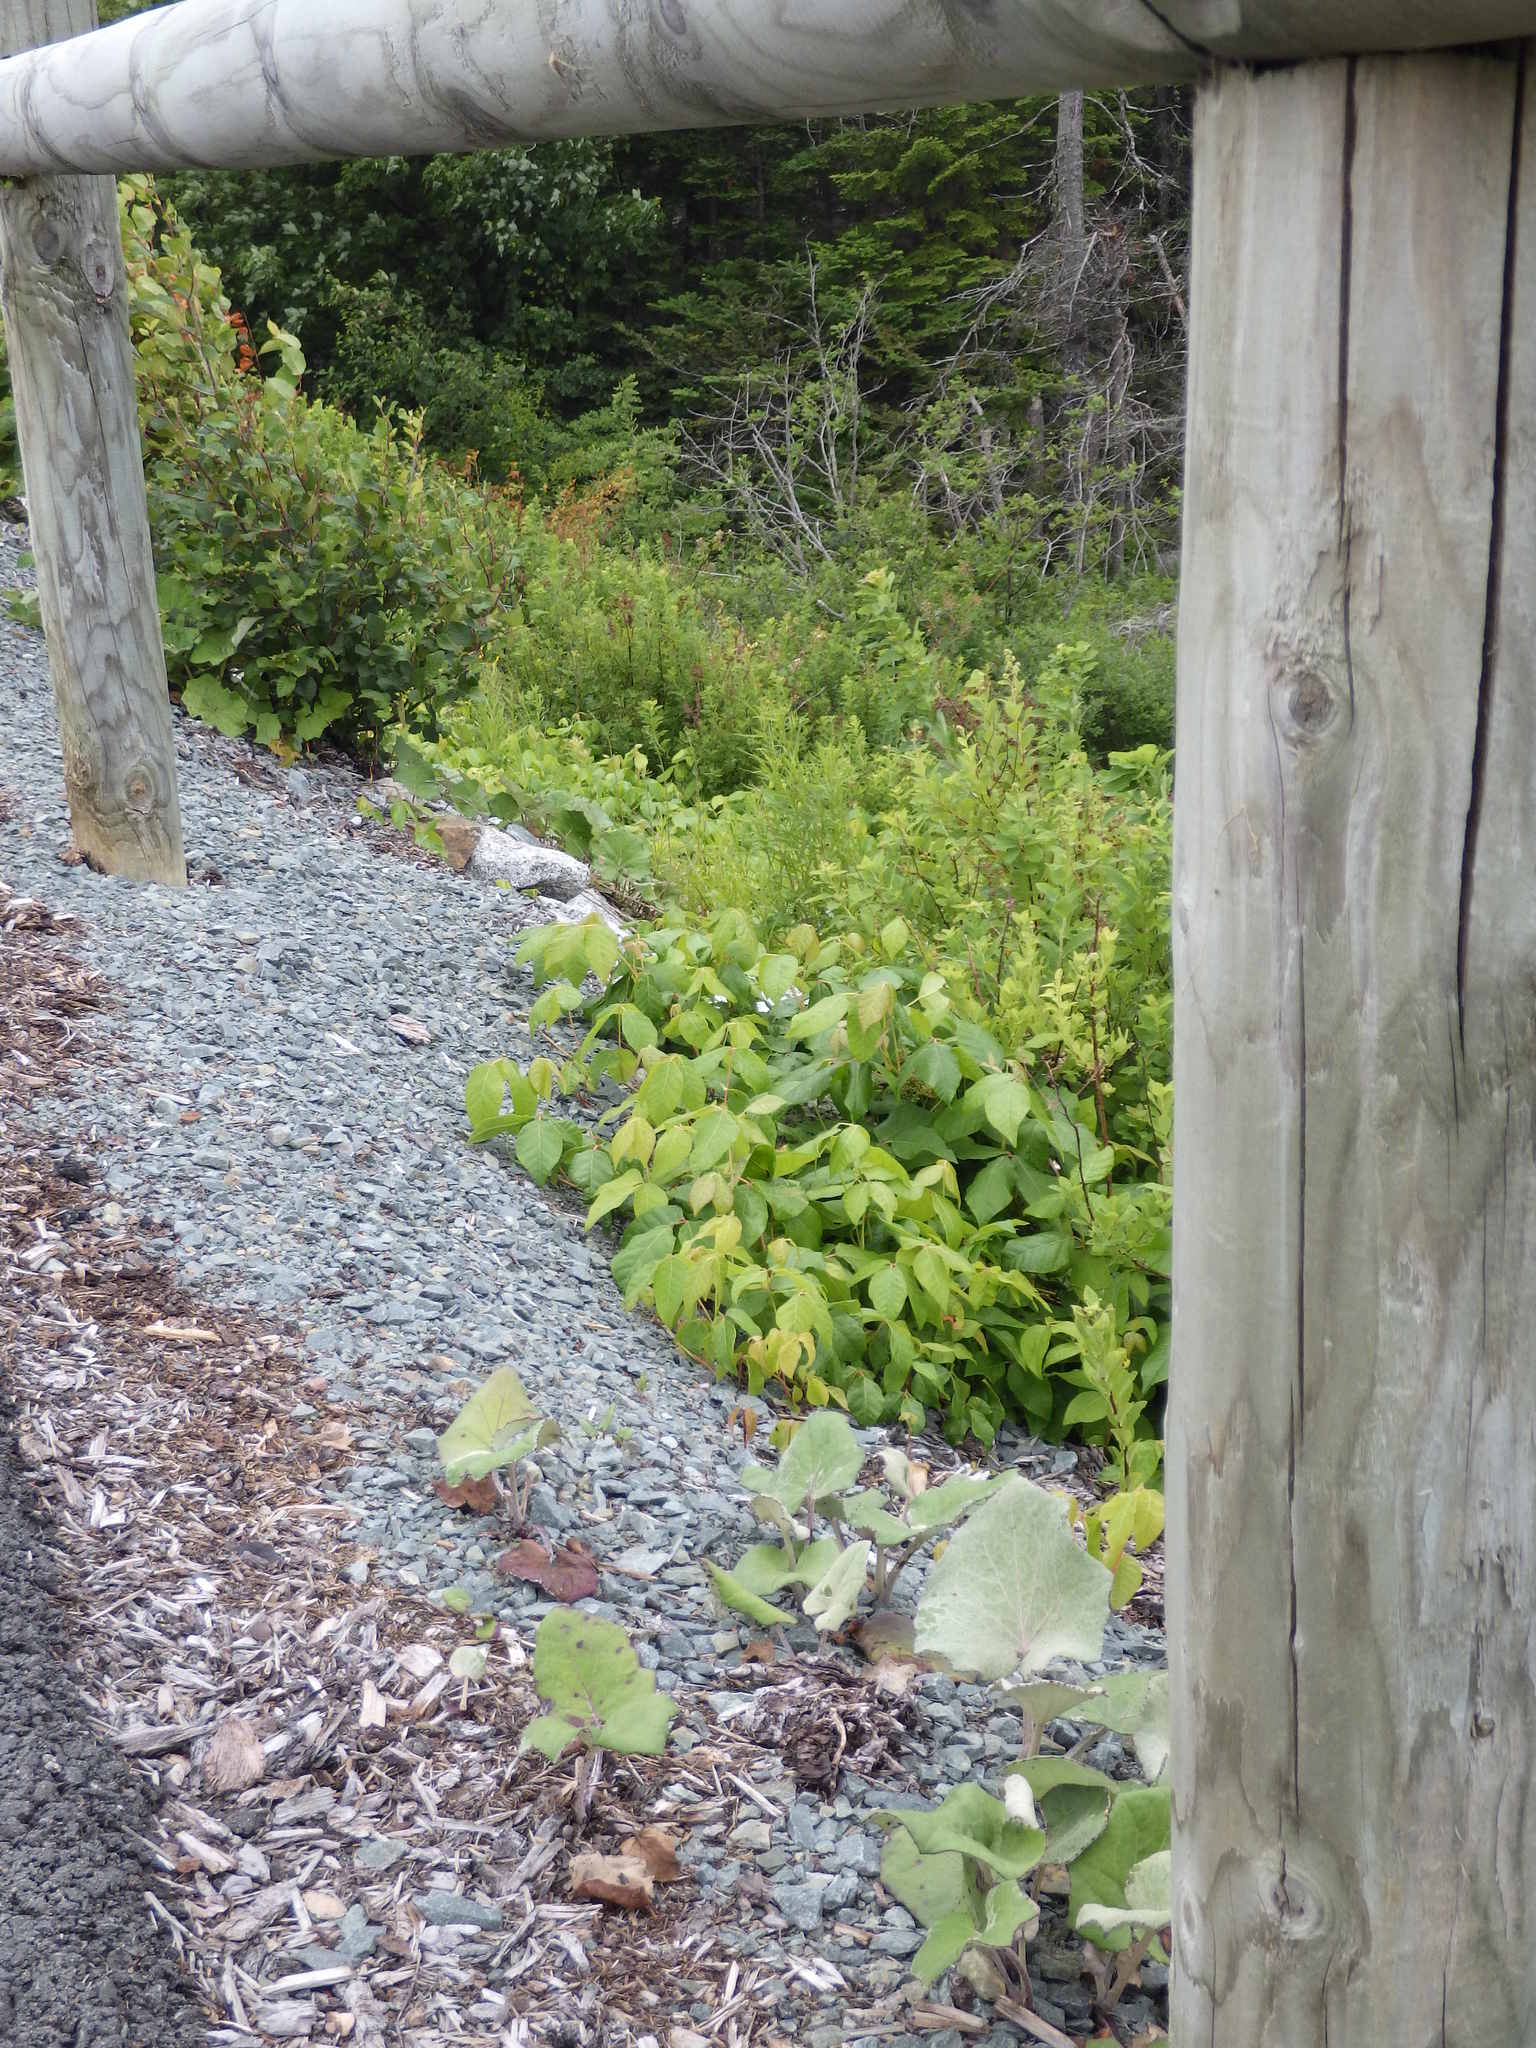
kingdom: Plantae
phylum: Tracheophyta
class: Magnoliopsida
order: Sapindales
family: Anacardiaceae
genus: Toxicodendron
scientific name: Toxicodendron radicans
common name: Poison ivy
